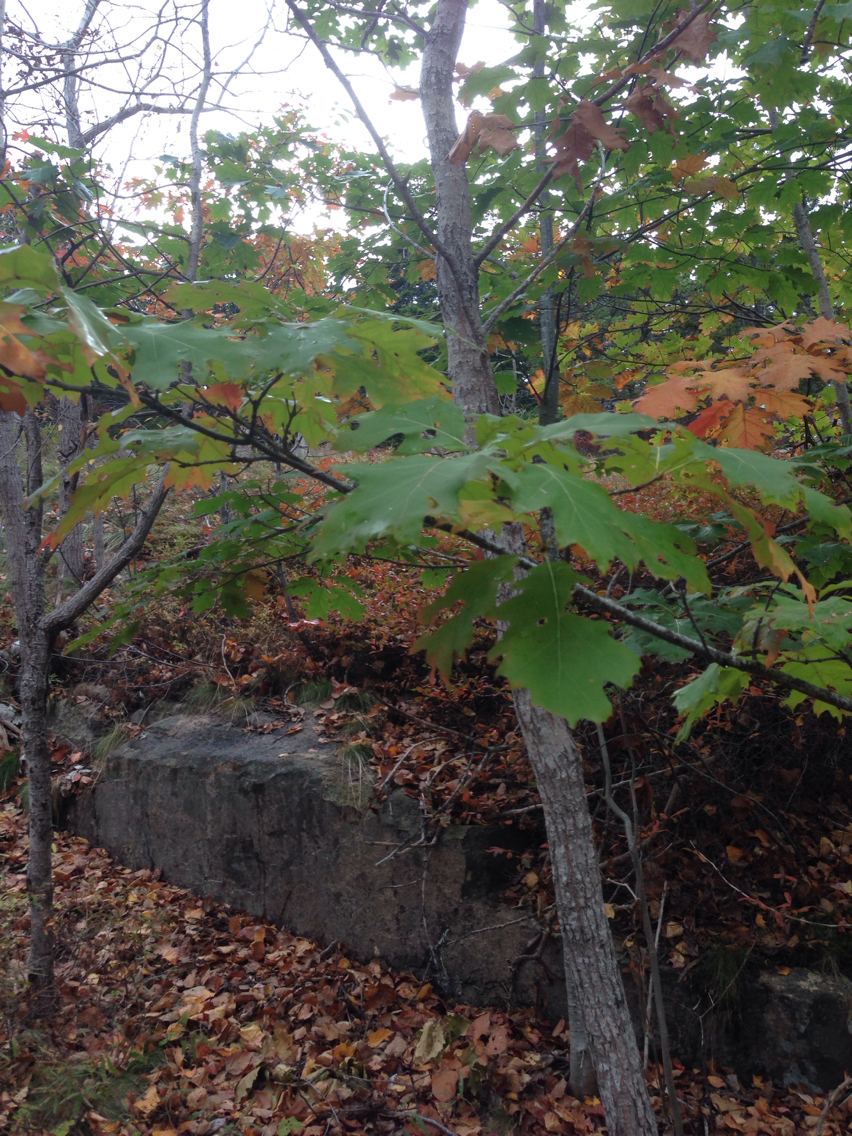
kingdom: Plantae
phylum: Tracheophyta
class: Magnoliopsida
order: Fagales
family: Fagaceae
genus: Quercus
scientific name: Quercus rubra
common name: Red oak
